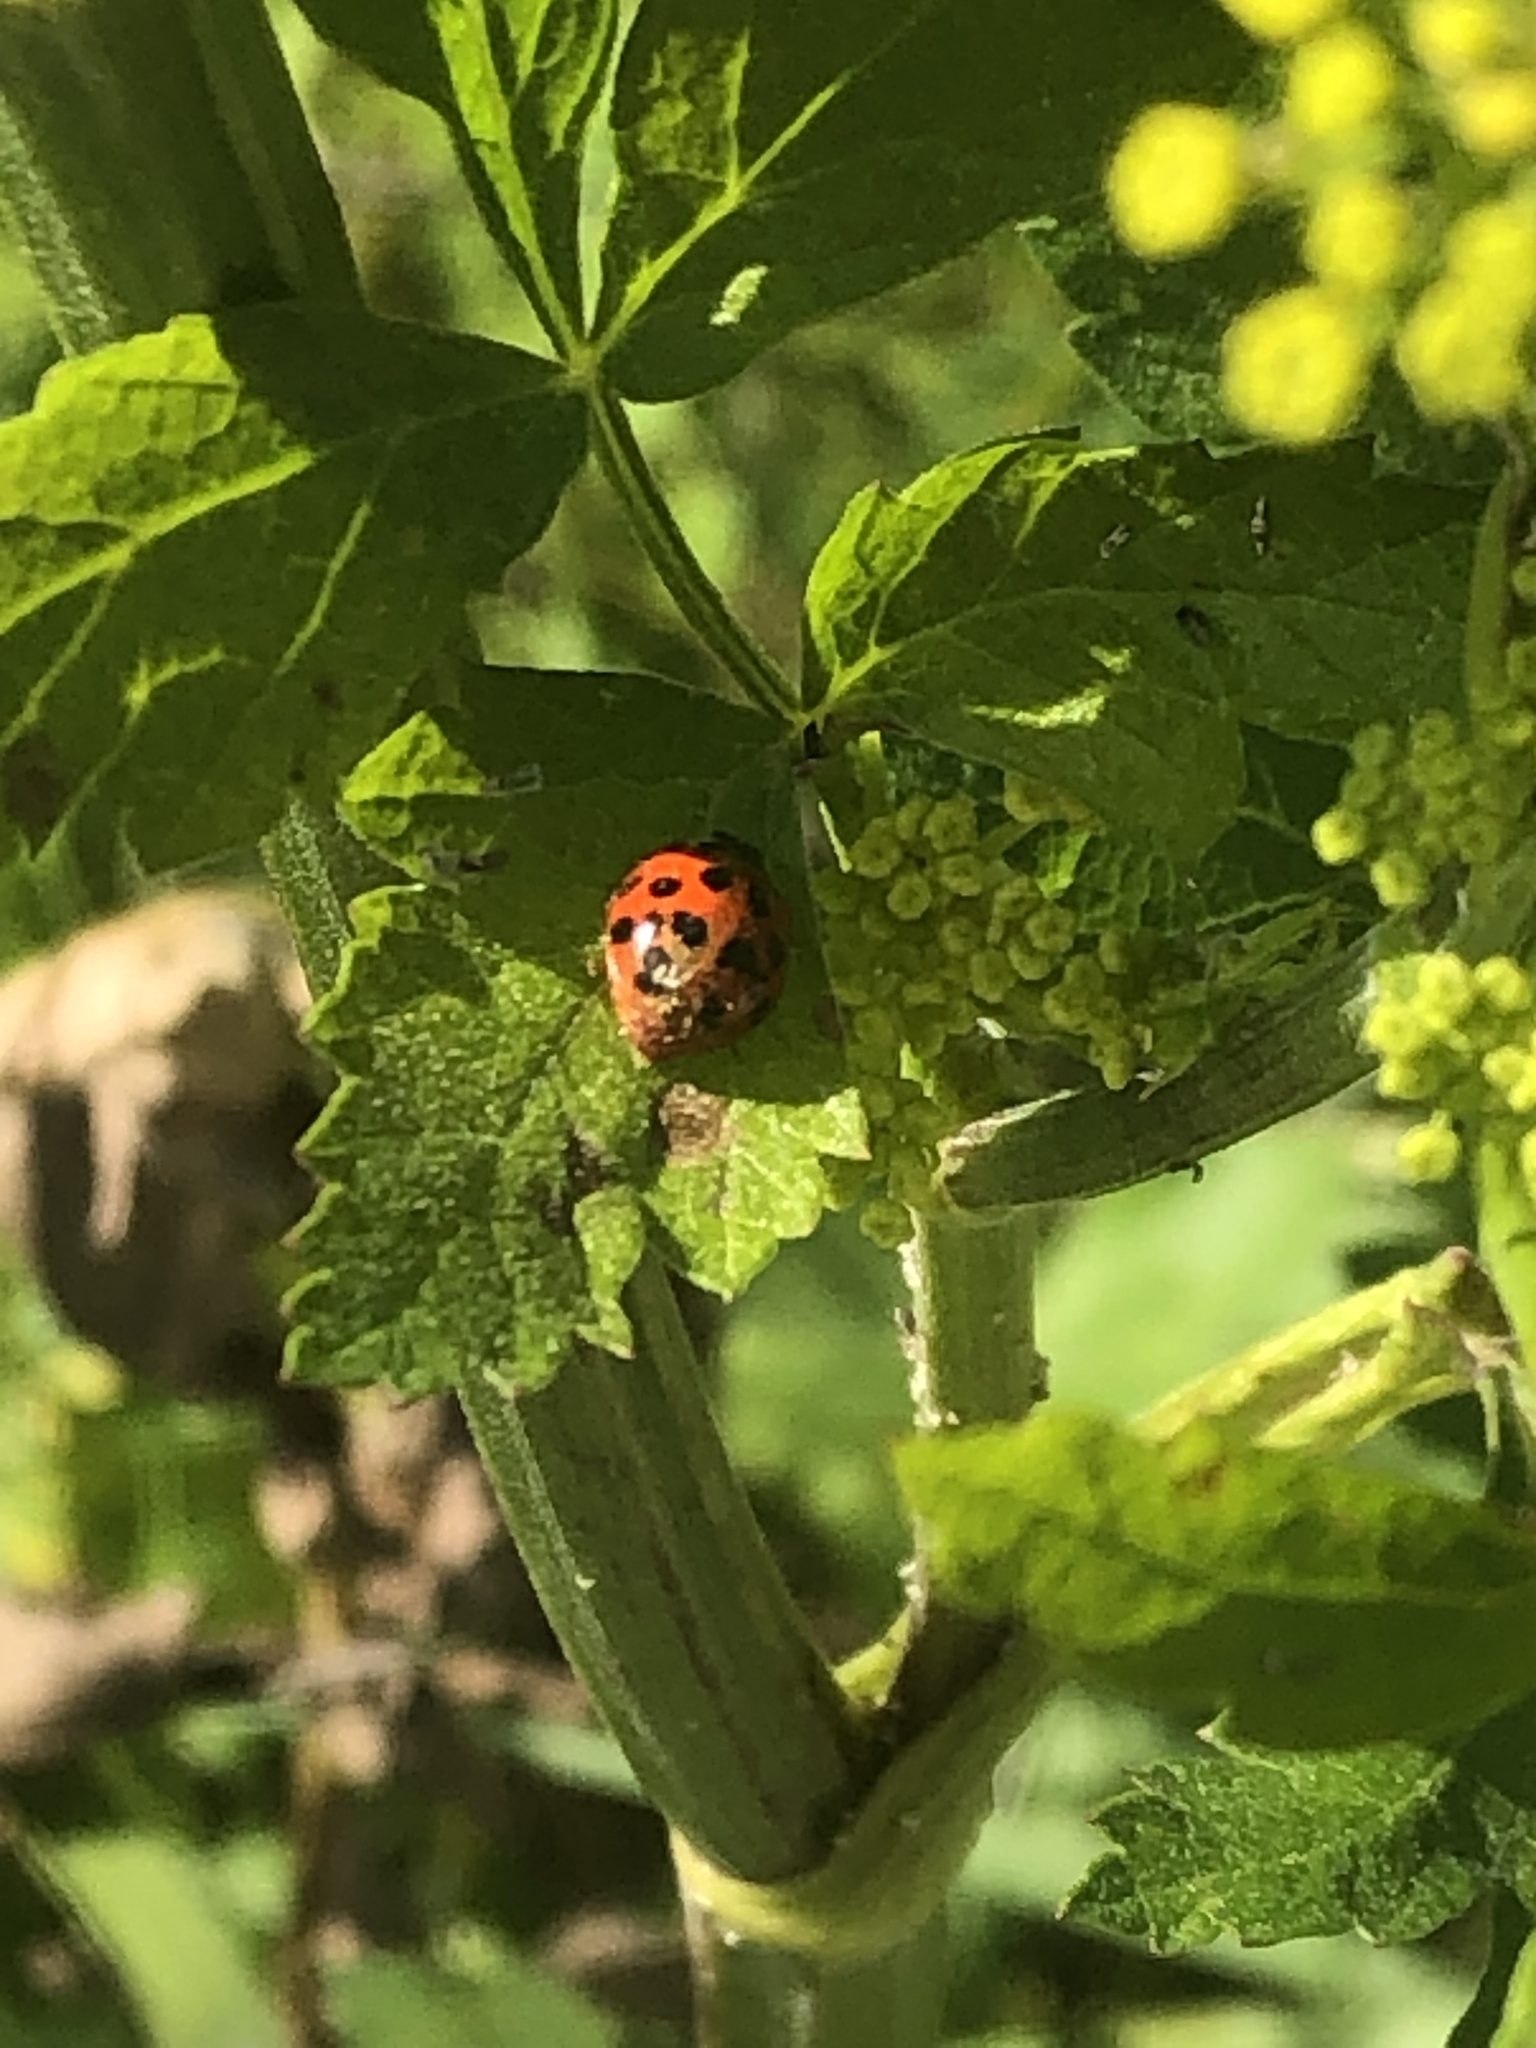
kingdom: Animalia
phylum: Arthropoda
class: Insecta
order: Coleoptera
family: Coccinellidae
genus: Harmonia
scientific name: Harmonia axyridis
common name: Harlequin ladybird
